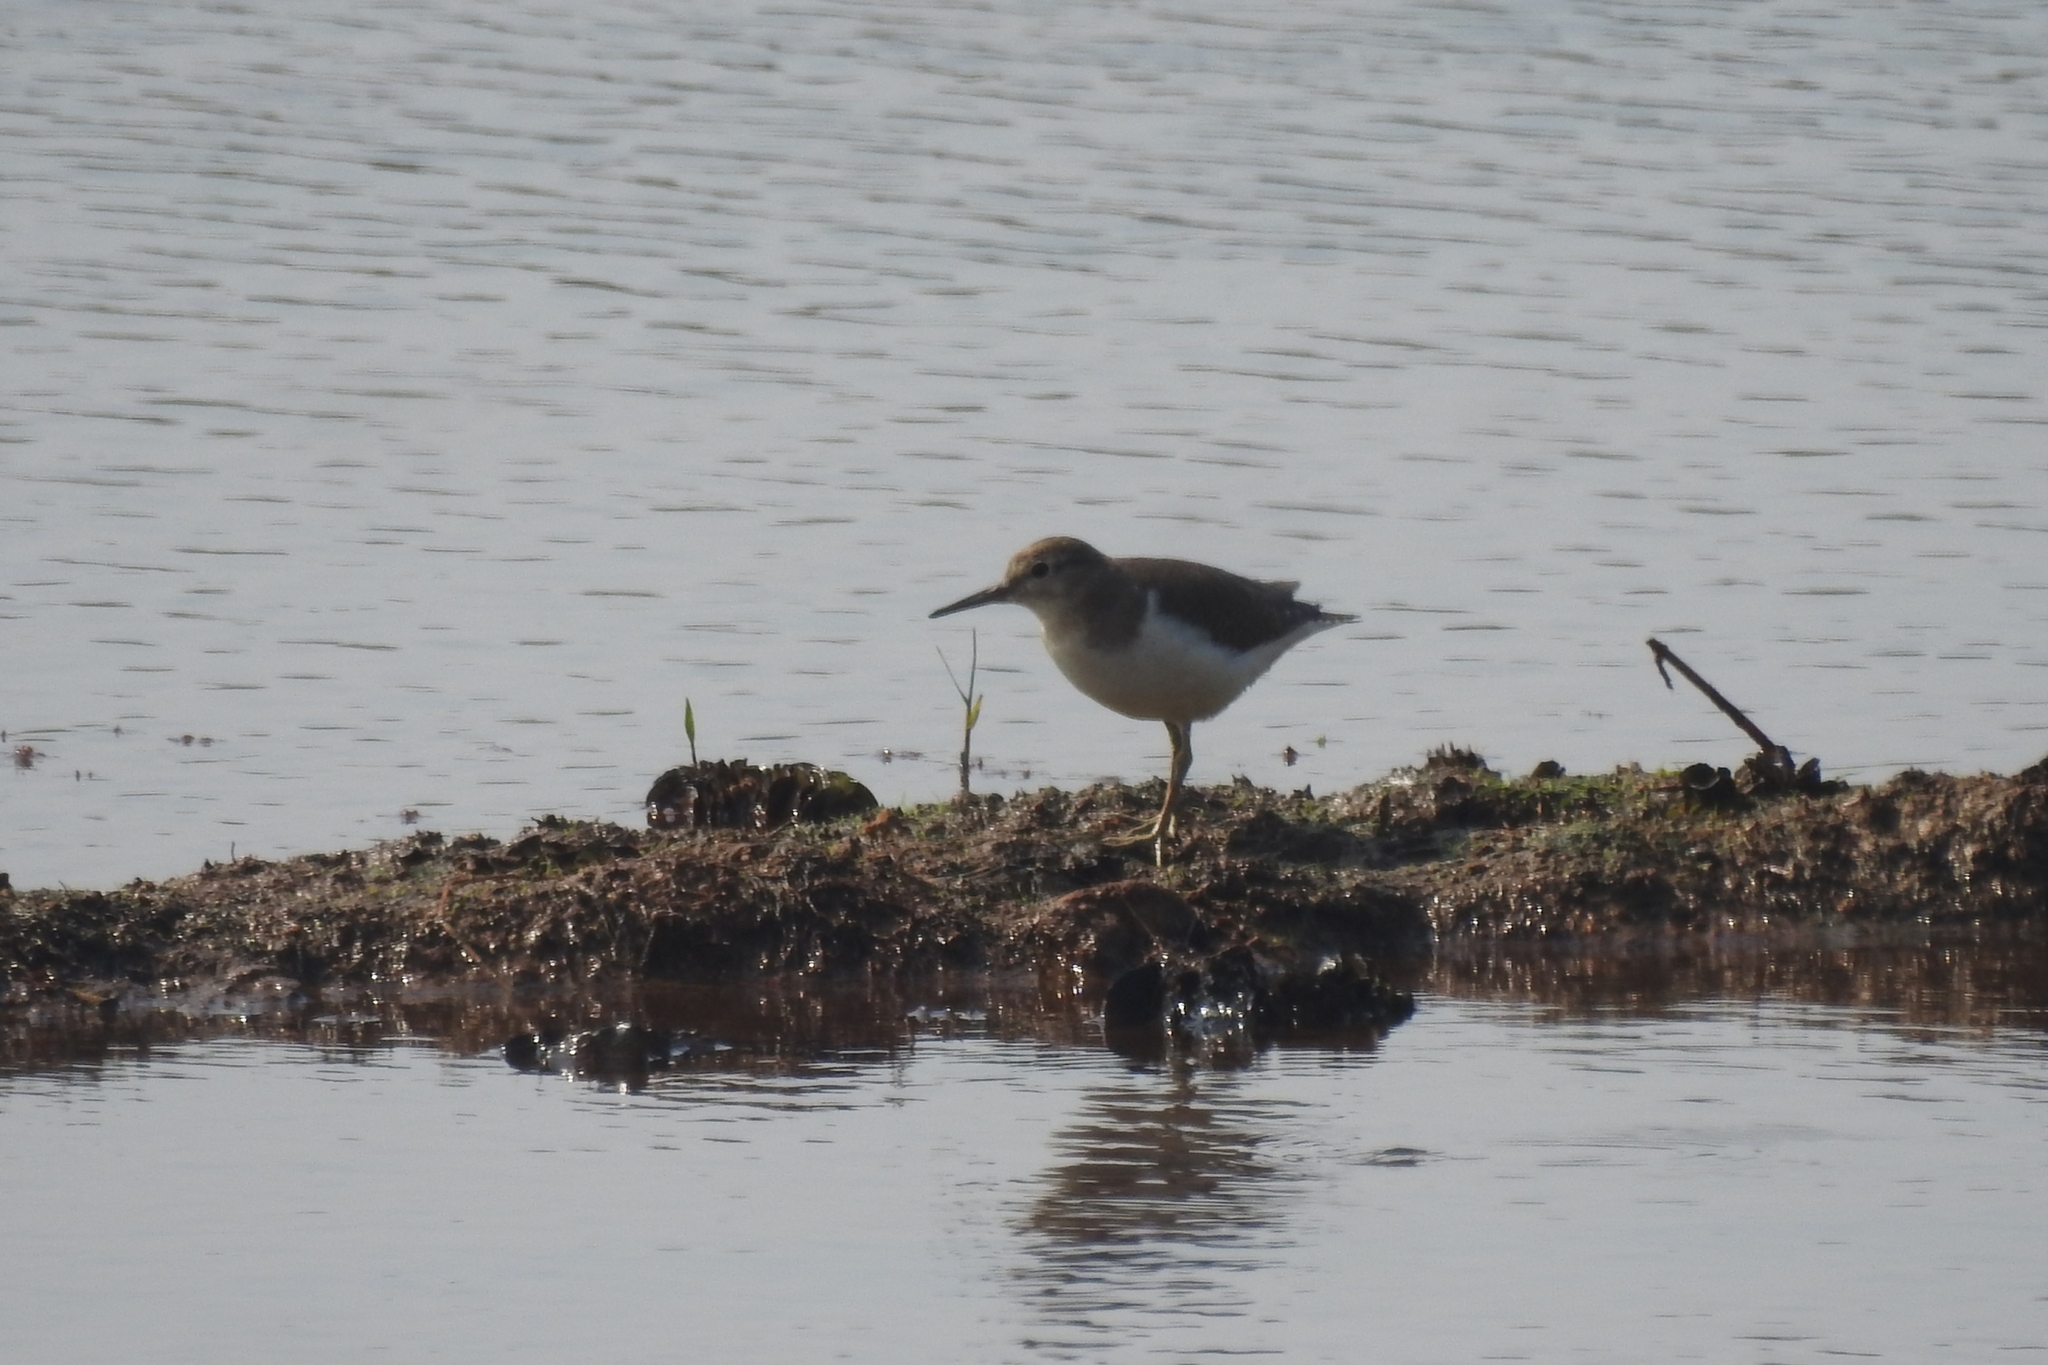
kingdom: Animalia
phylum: Chordata
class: Aves
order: Charadriiformes
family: Scolopacidae
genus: Actitis
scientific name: Actitis hypoleucos
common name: Common sandpiper
